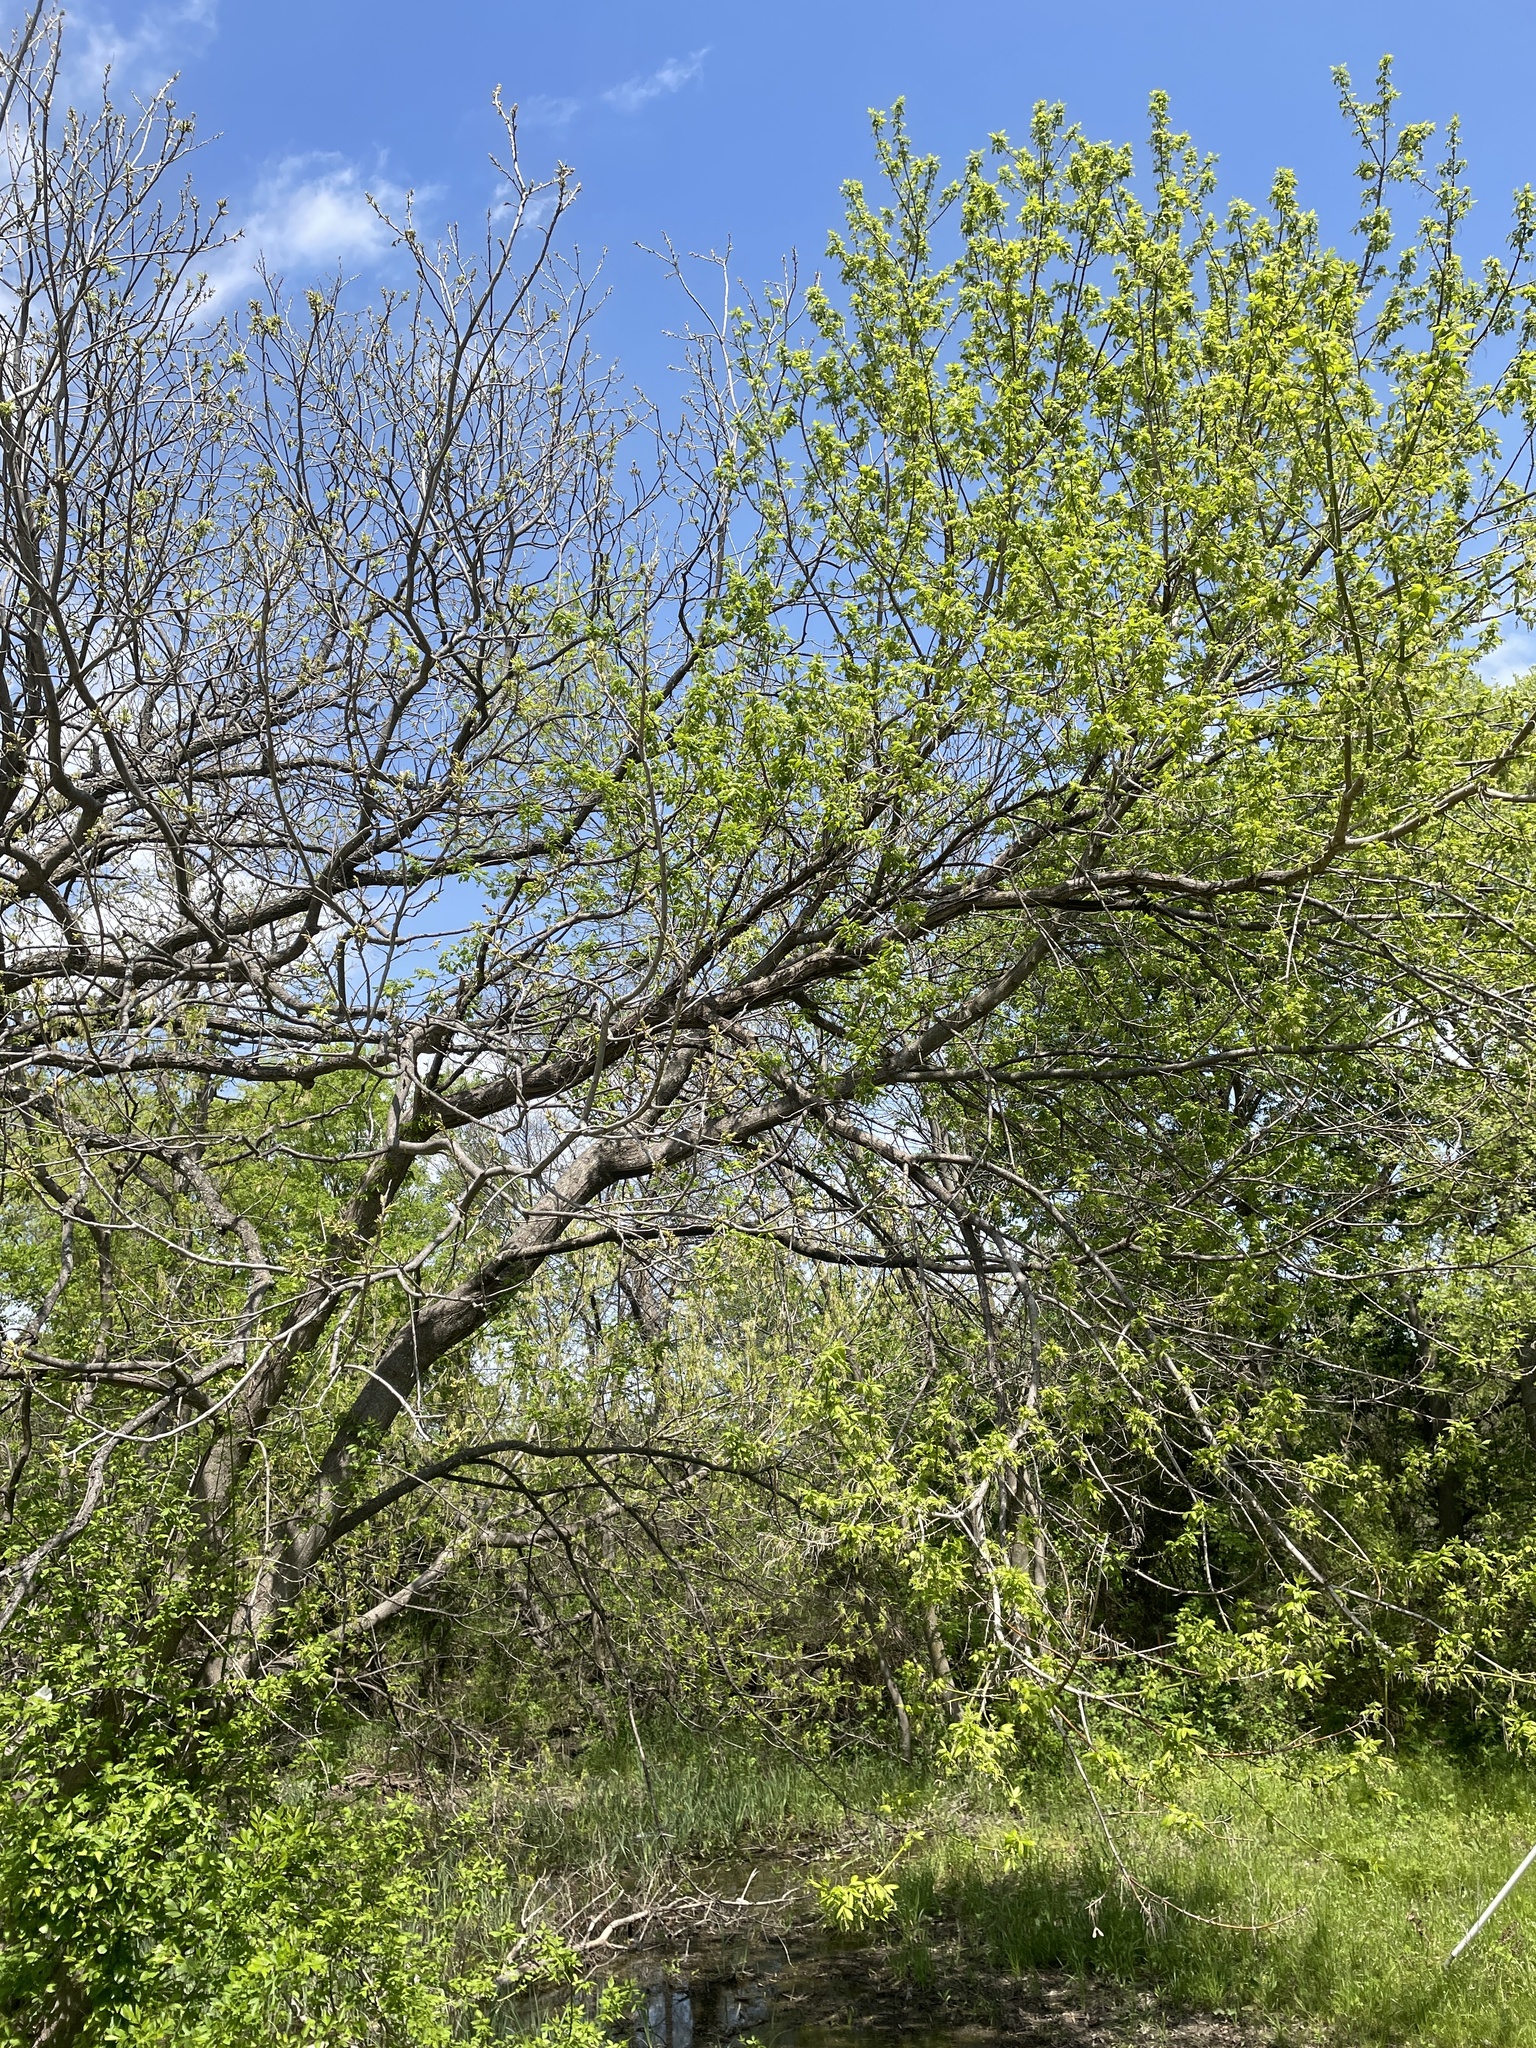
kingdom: Plantae
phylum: Tracheophyta
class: Magnoliopsida
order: Sapindales
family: Sapindaceae
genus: Acer
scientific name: Acer negundo
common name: Ashleaf maple
